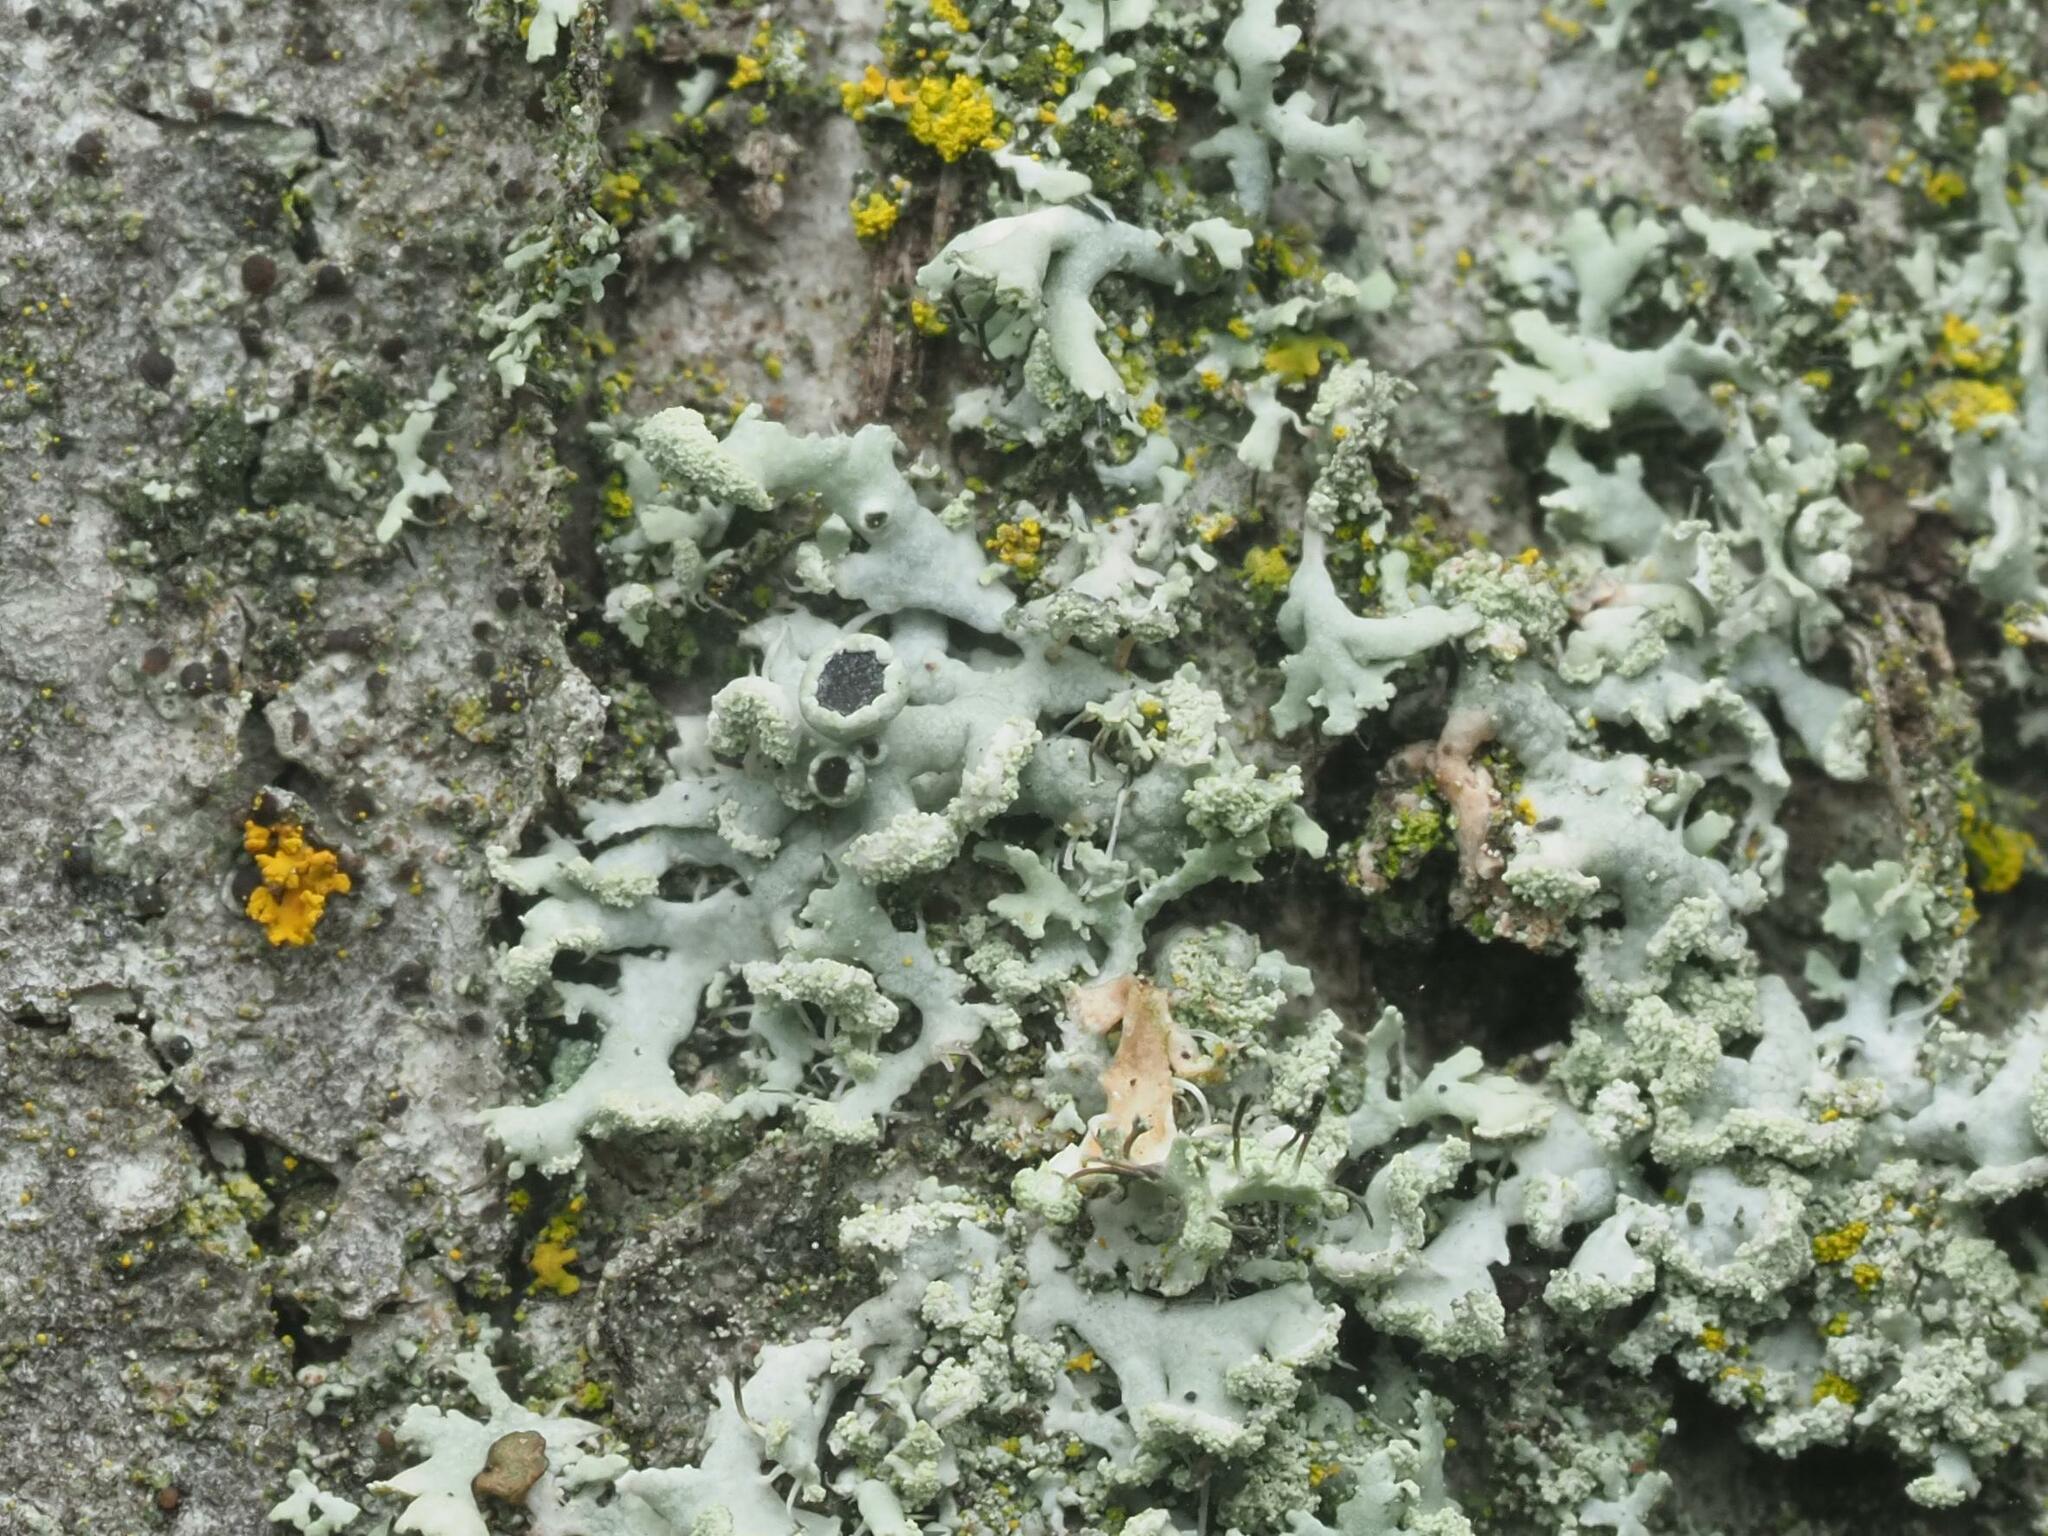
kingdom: Fungi
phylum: Ascomycota
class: Lecanoromycetes
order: Caliciales
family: Physciaceae
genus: Physcia
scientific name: Physcia tenella
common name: Fringed rosette lichen
